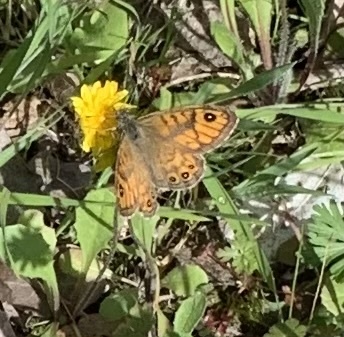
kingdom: Animalia
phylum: Arthropoda
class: Insecta
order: Lepidoptera
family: Nymphalidae
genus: Pararge
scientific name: Pararge Lasiommata megera
